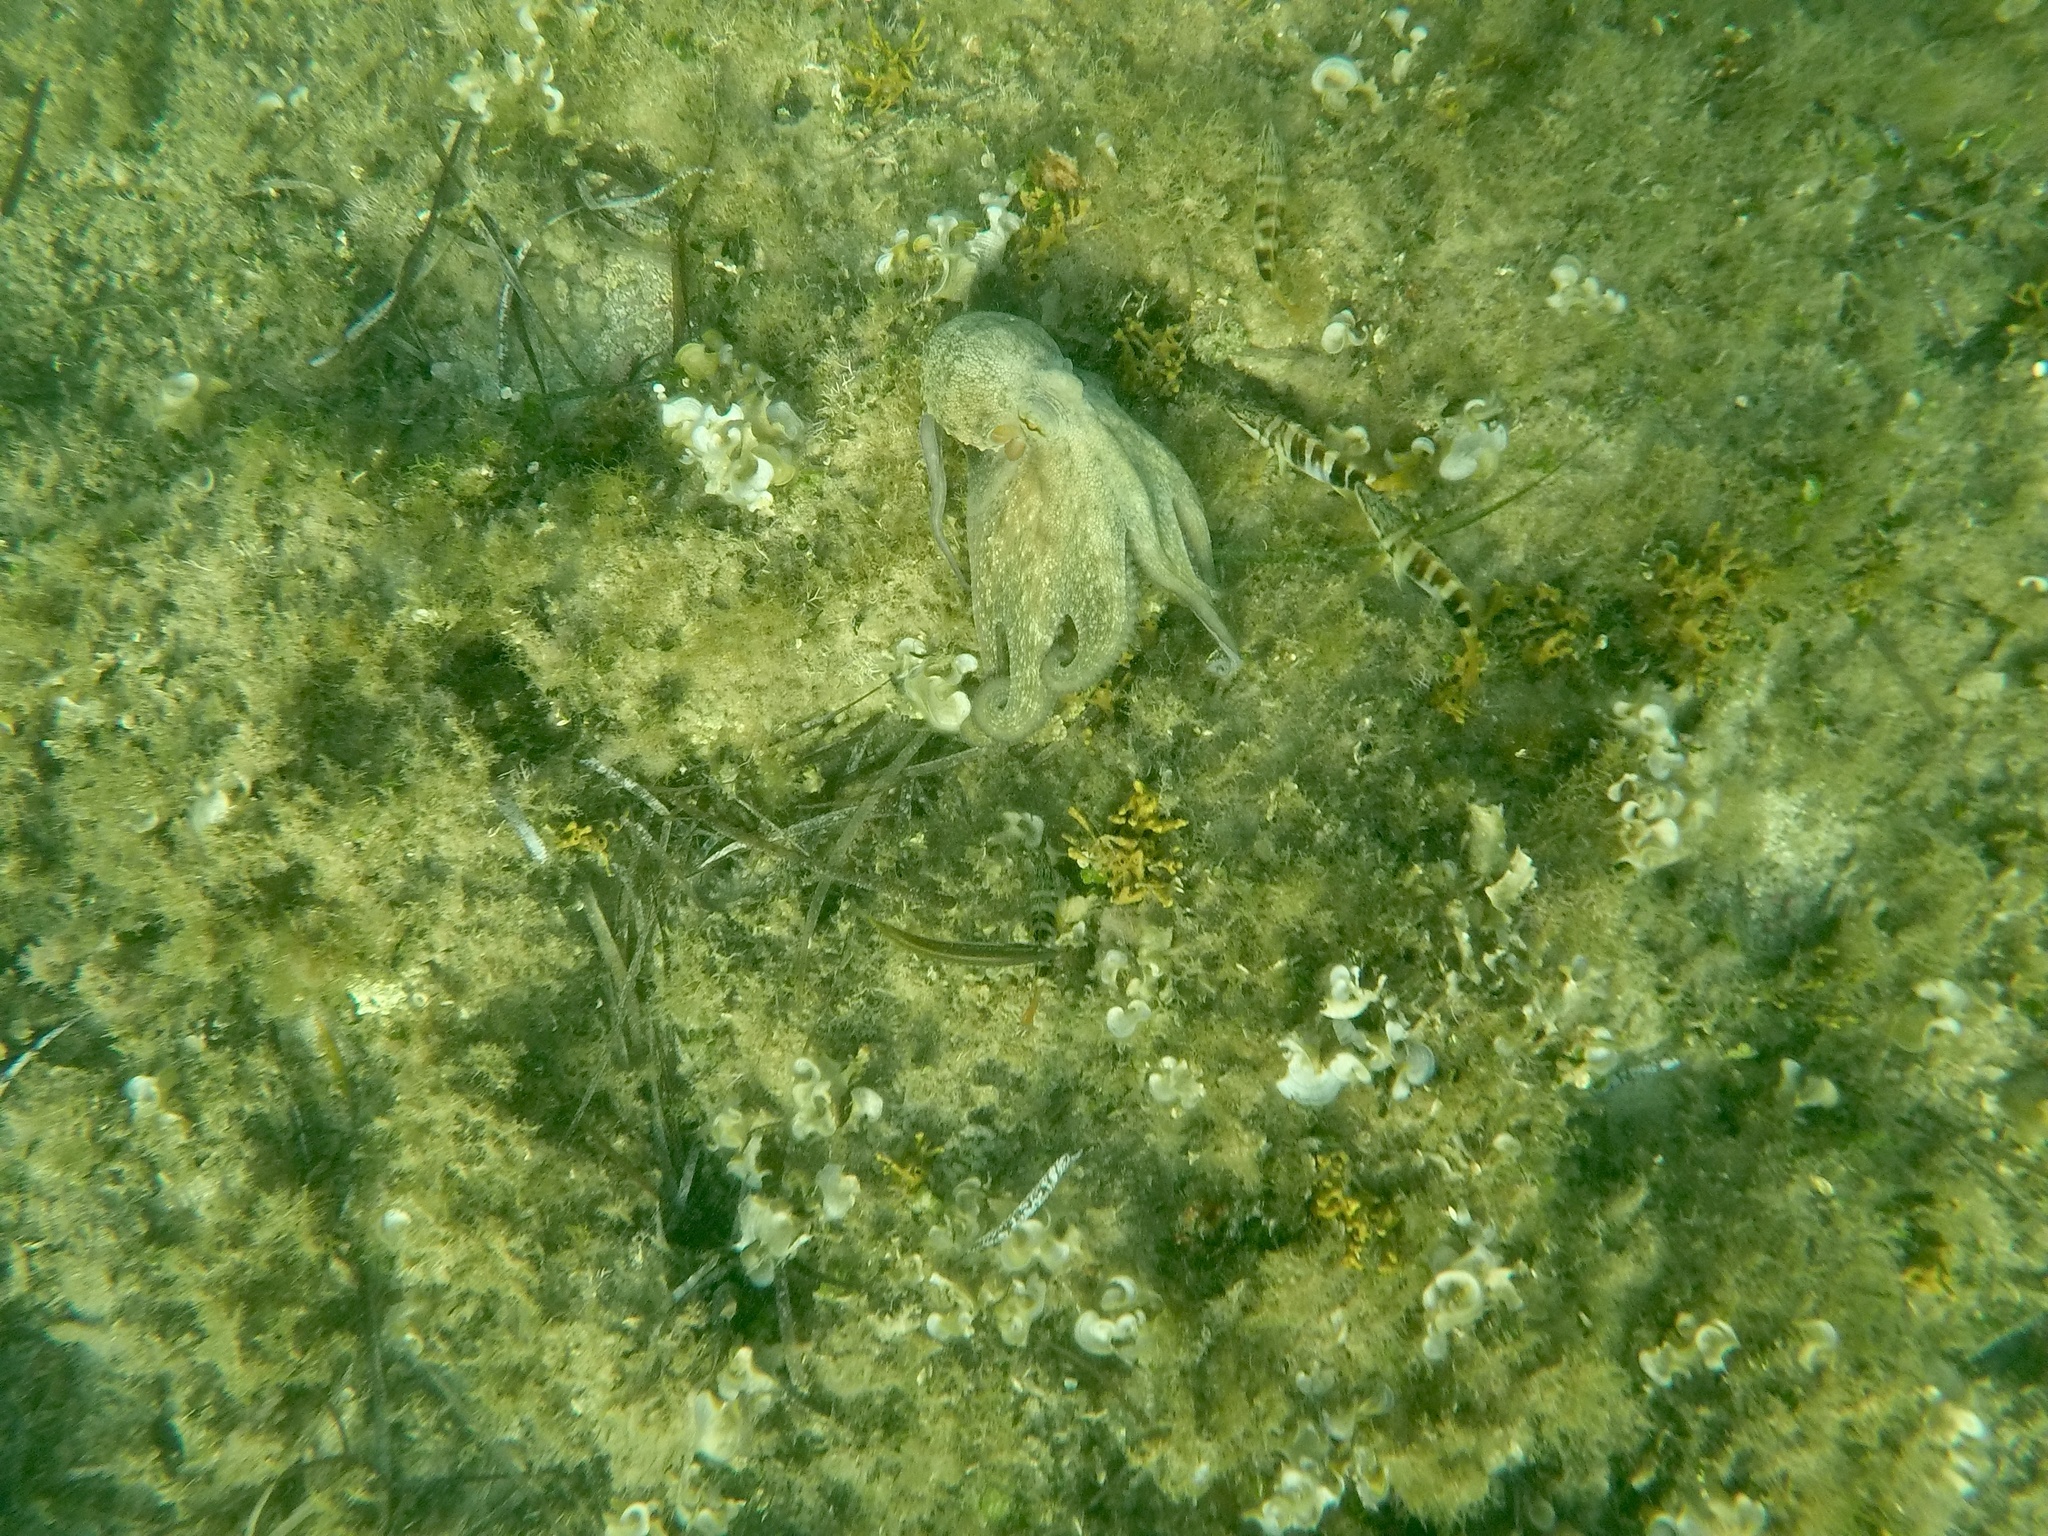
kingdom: Animalia
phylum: Mollusca
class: Cephalopoda
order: Octopoda
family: Octopodidae
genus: Octopus
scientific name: Octopus vulgaris
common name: Common octopus
